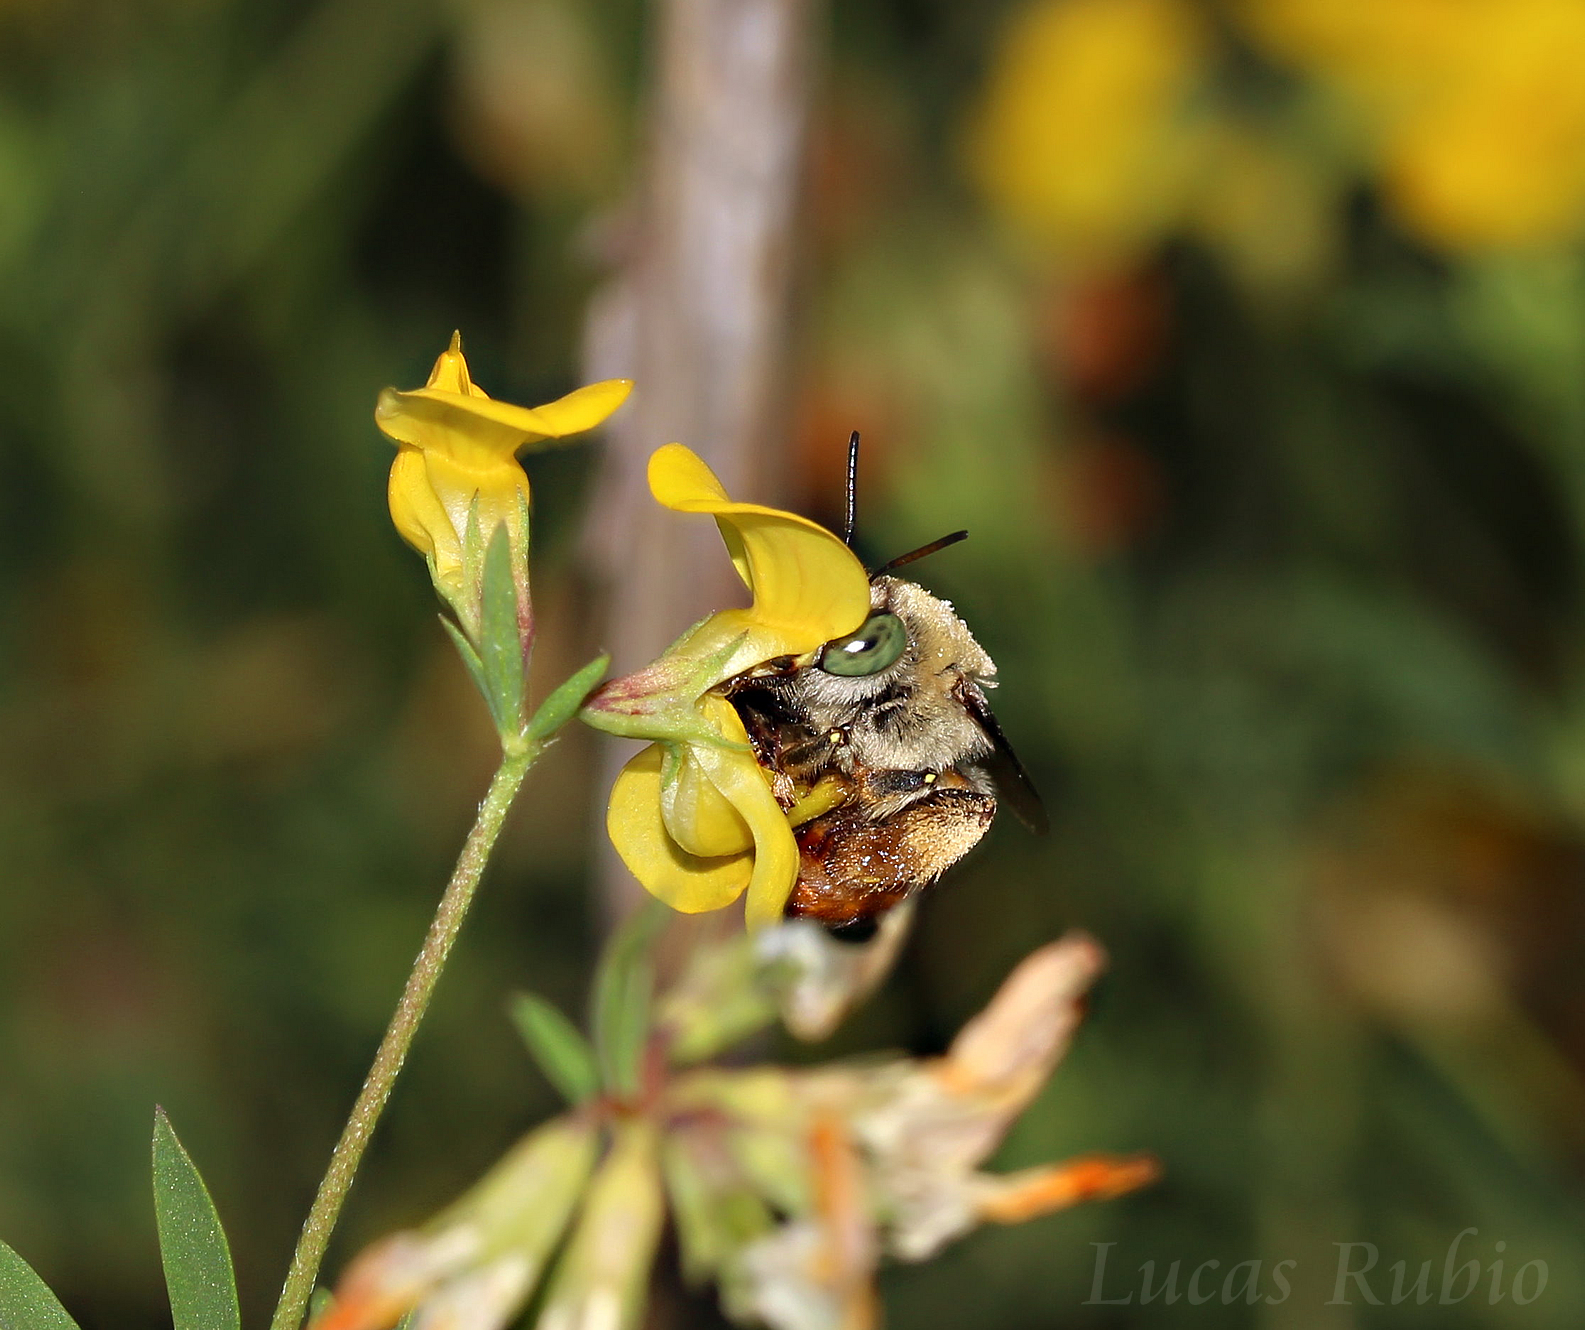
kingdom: Animalia
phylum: Arthropoda
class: Insecta
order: Hymenoptera
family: Apidae
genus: Centris
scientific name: Centris brethesi
